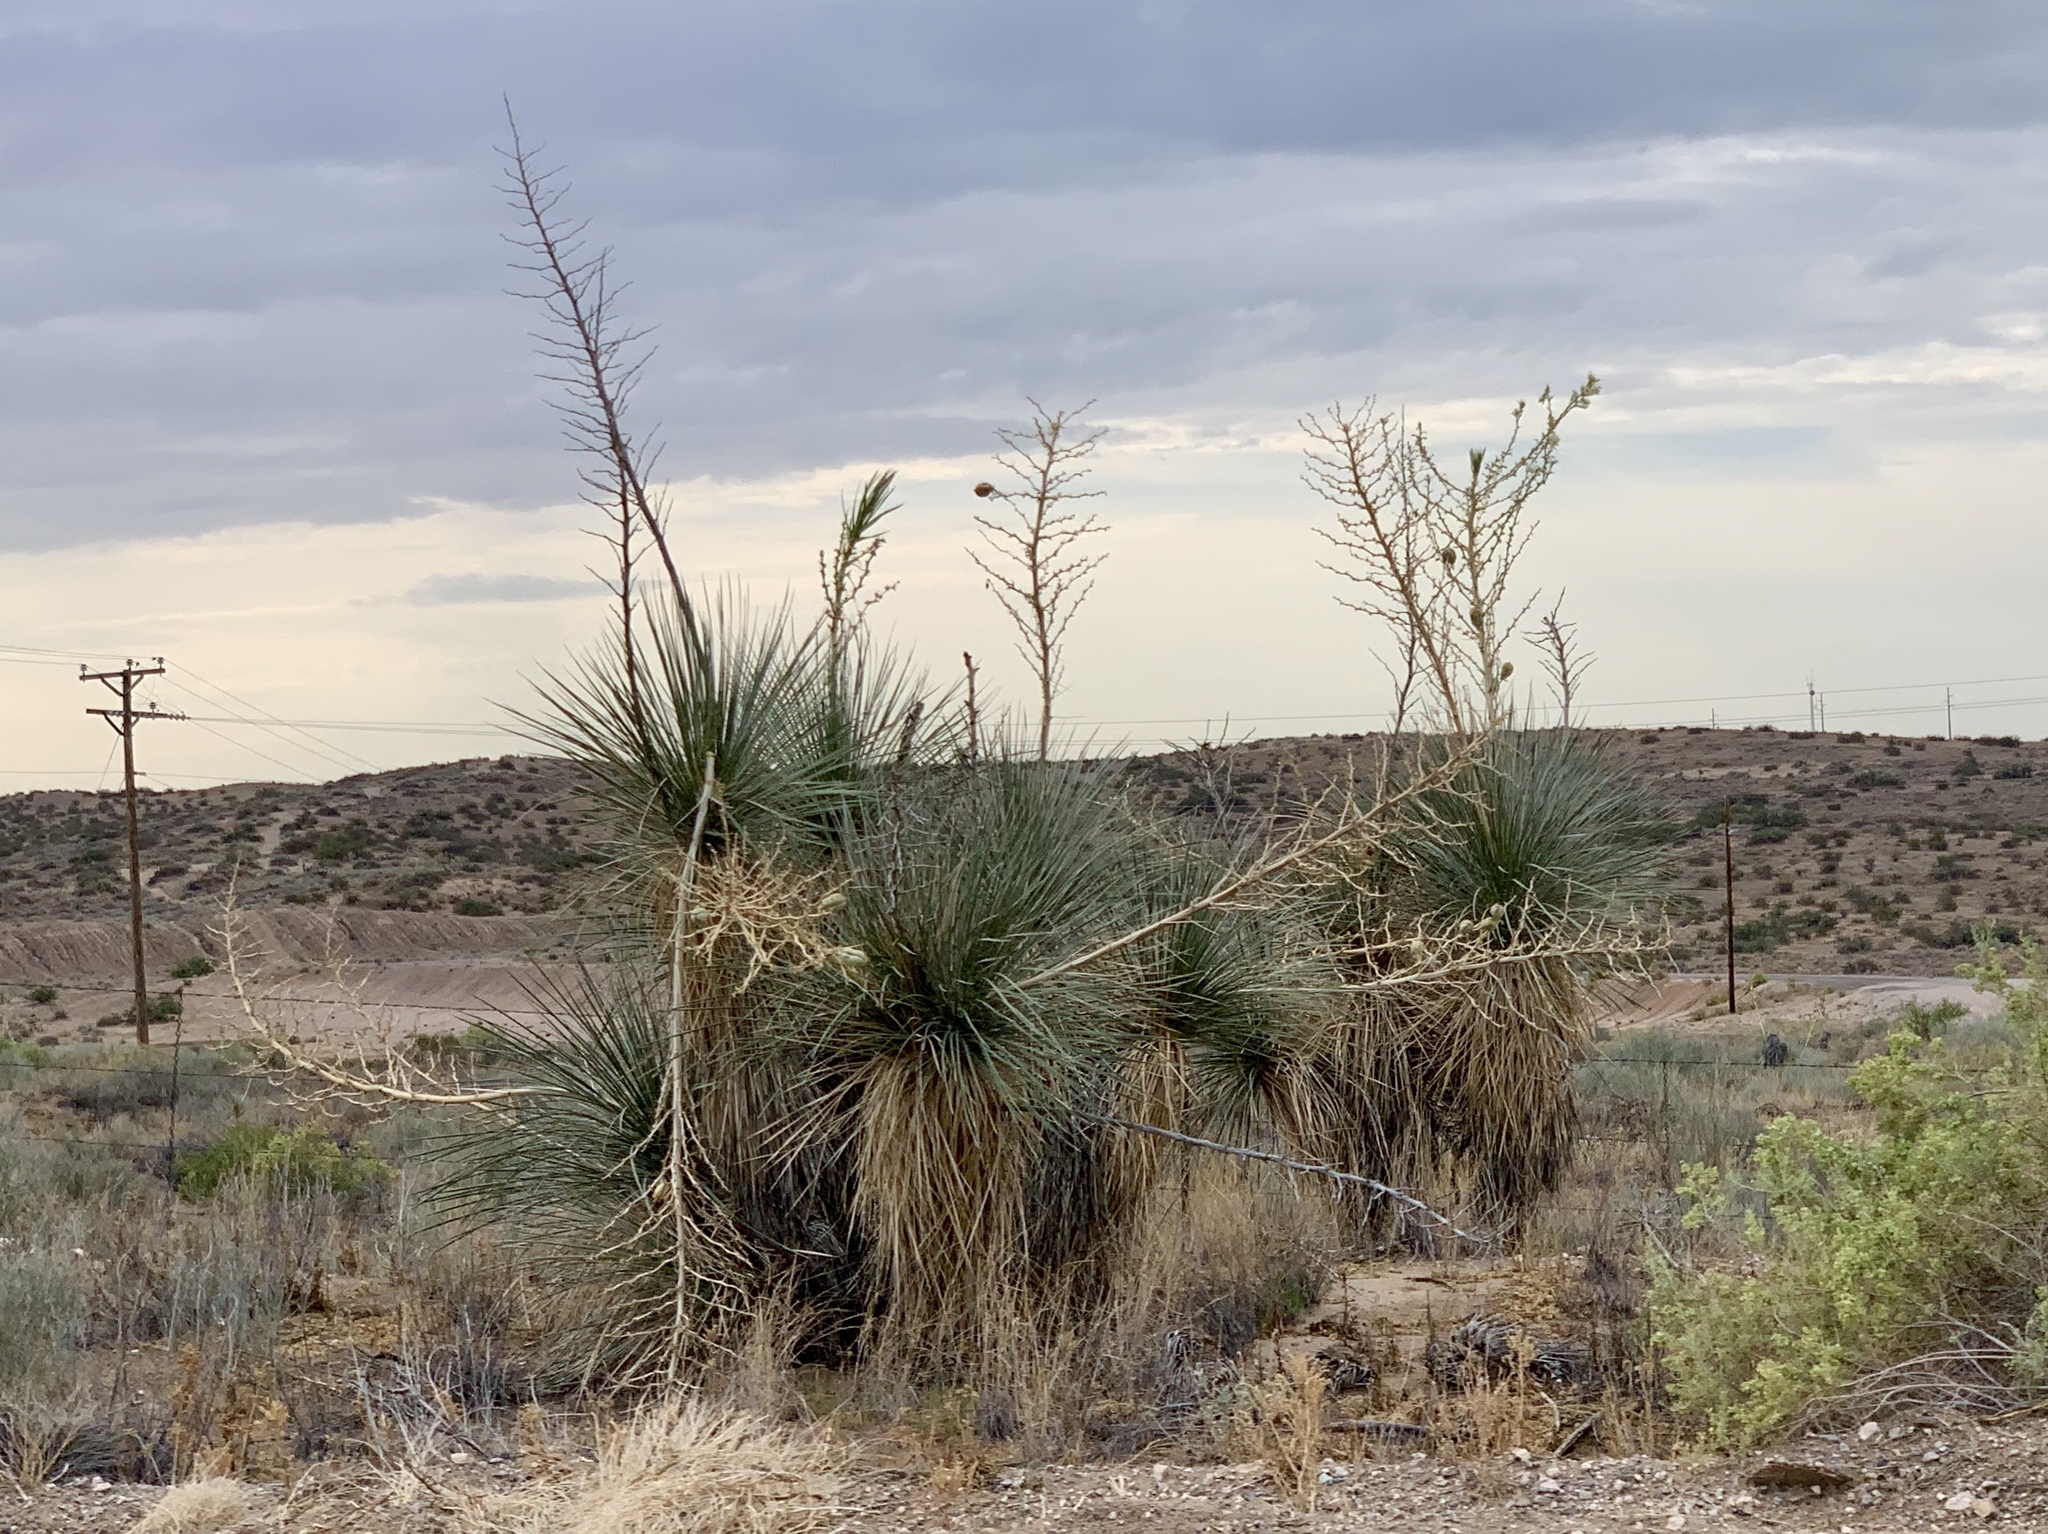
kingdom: Plantae
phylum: Tracheophyta
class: Liliopsida
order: Asparagales
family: Asparagaceae
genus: Yucca
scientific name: Yucca elata
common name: Palmella
